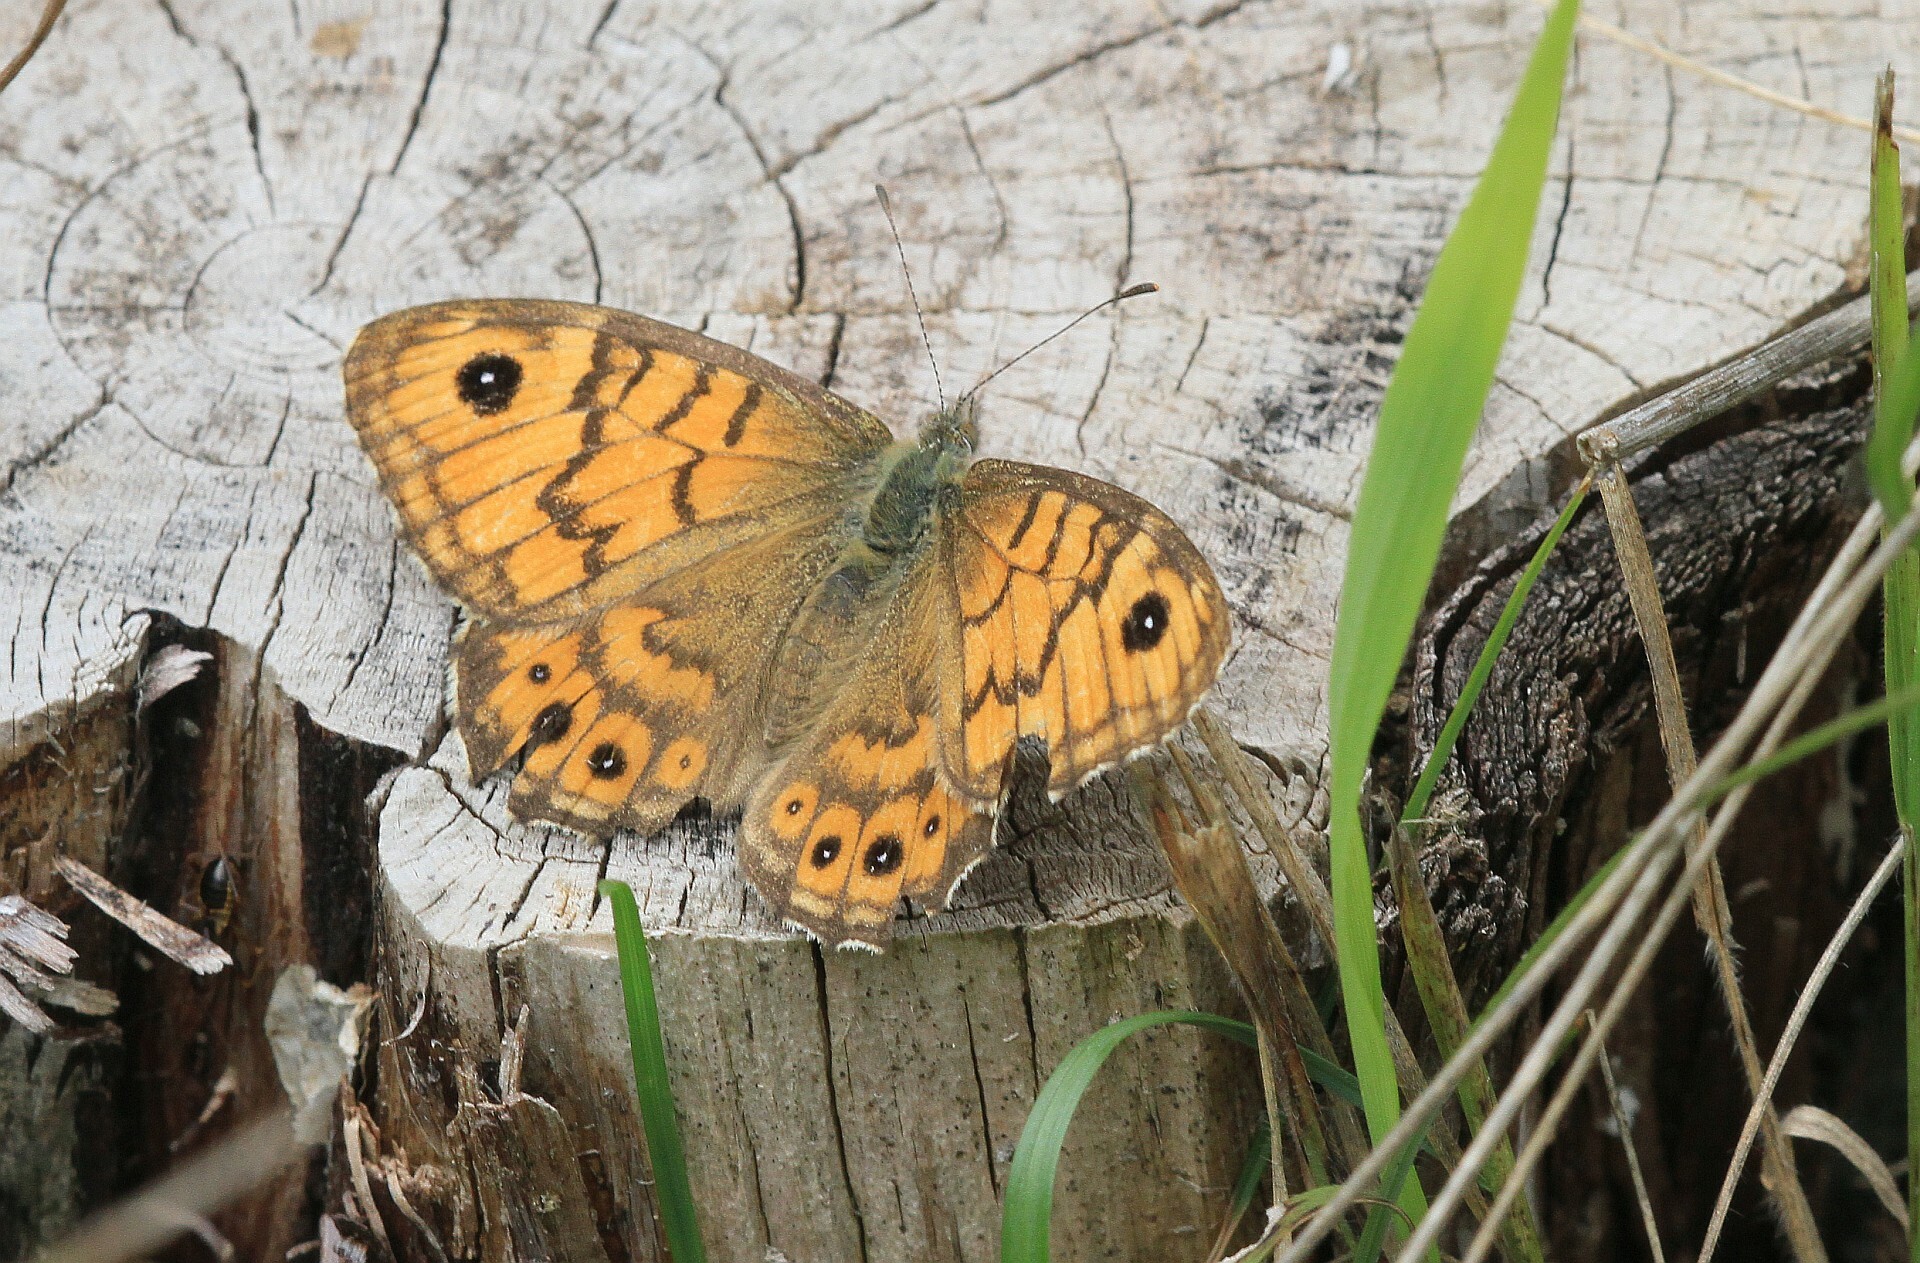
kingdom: Animalia
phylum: Arthropoda
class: Insecta
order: Lepidoptera
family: Nymphalidae
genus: Pararge
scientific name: Pararge Lasiommata megera
